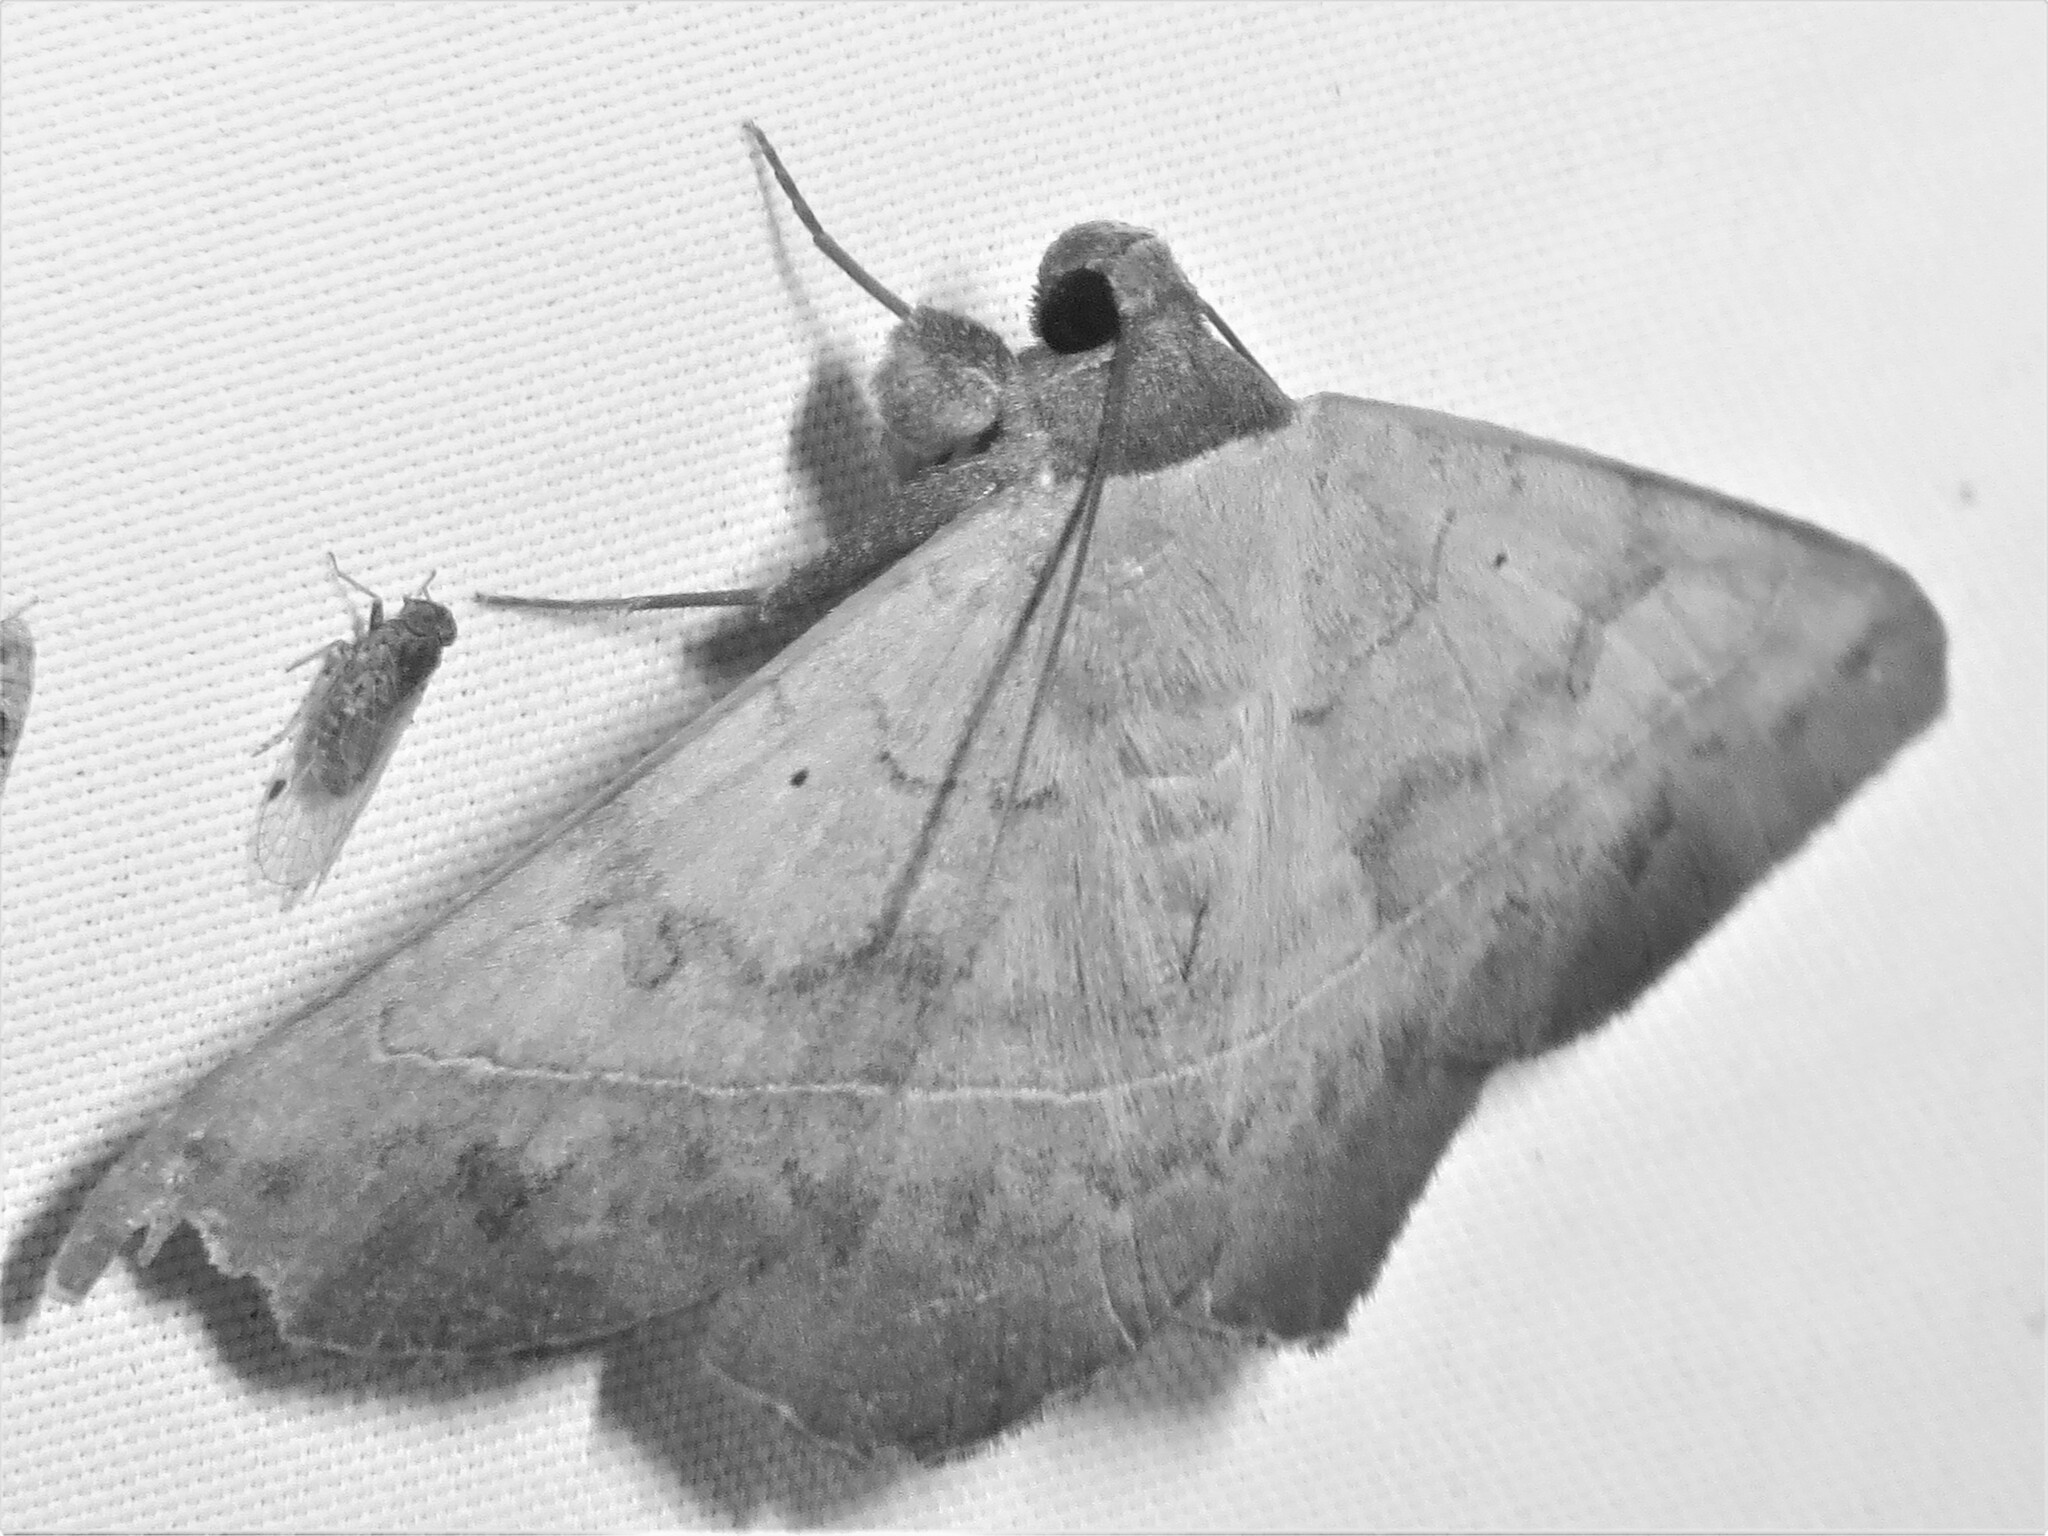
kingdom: Animalia
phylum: Arthropoda
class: Insecta
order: Lepidoptera
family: Erebidae
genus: Epidromia
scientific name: Epidromia pannosa
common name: Cutworm moth
